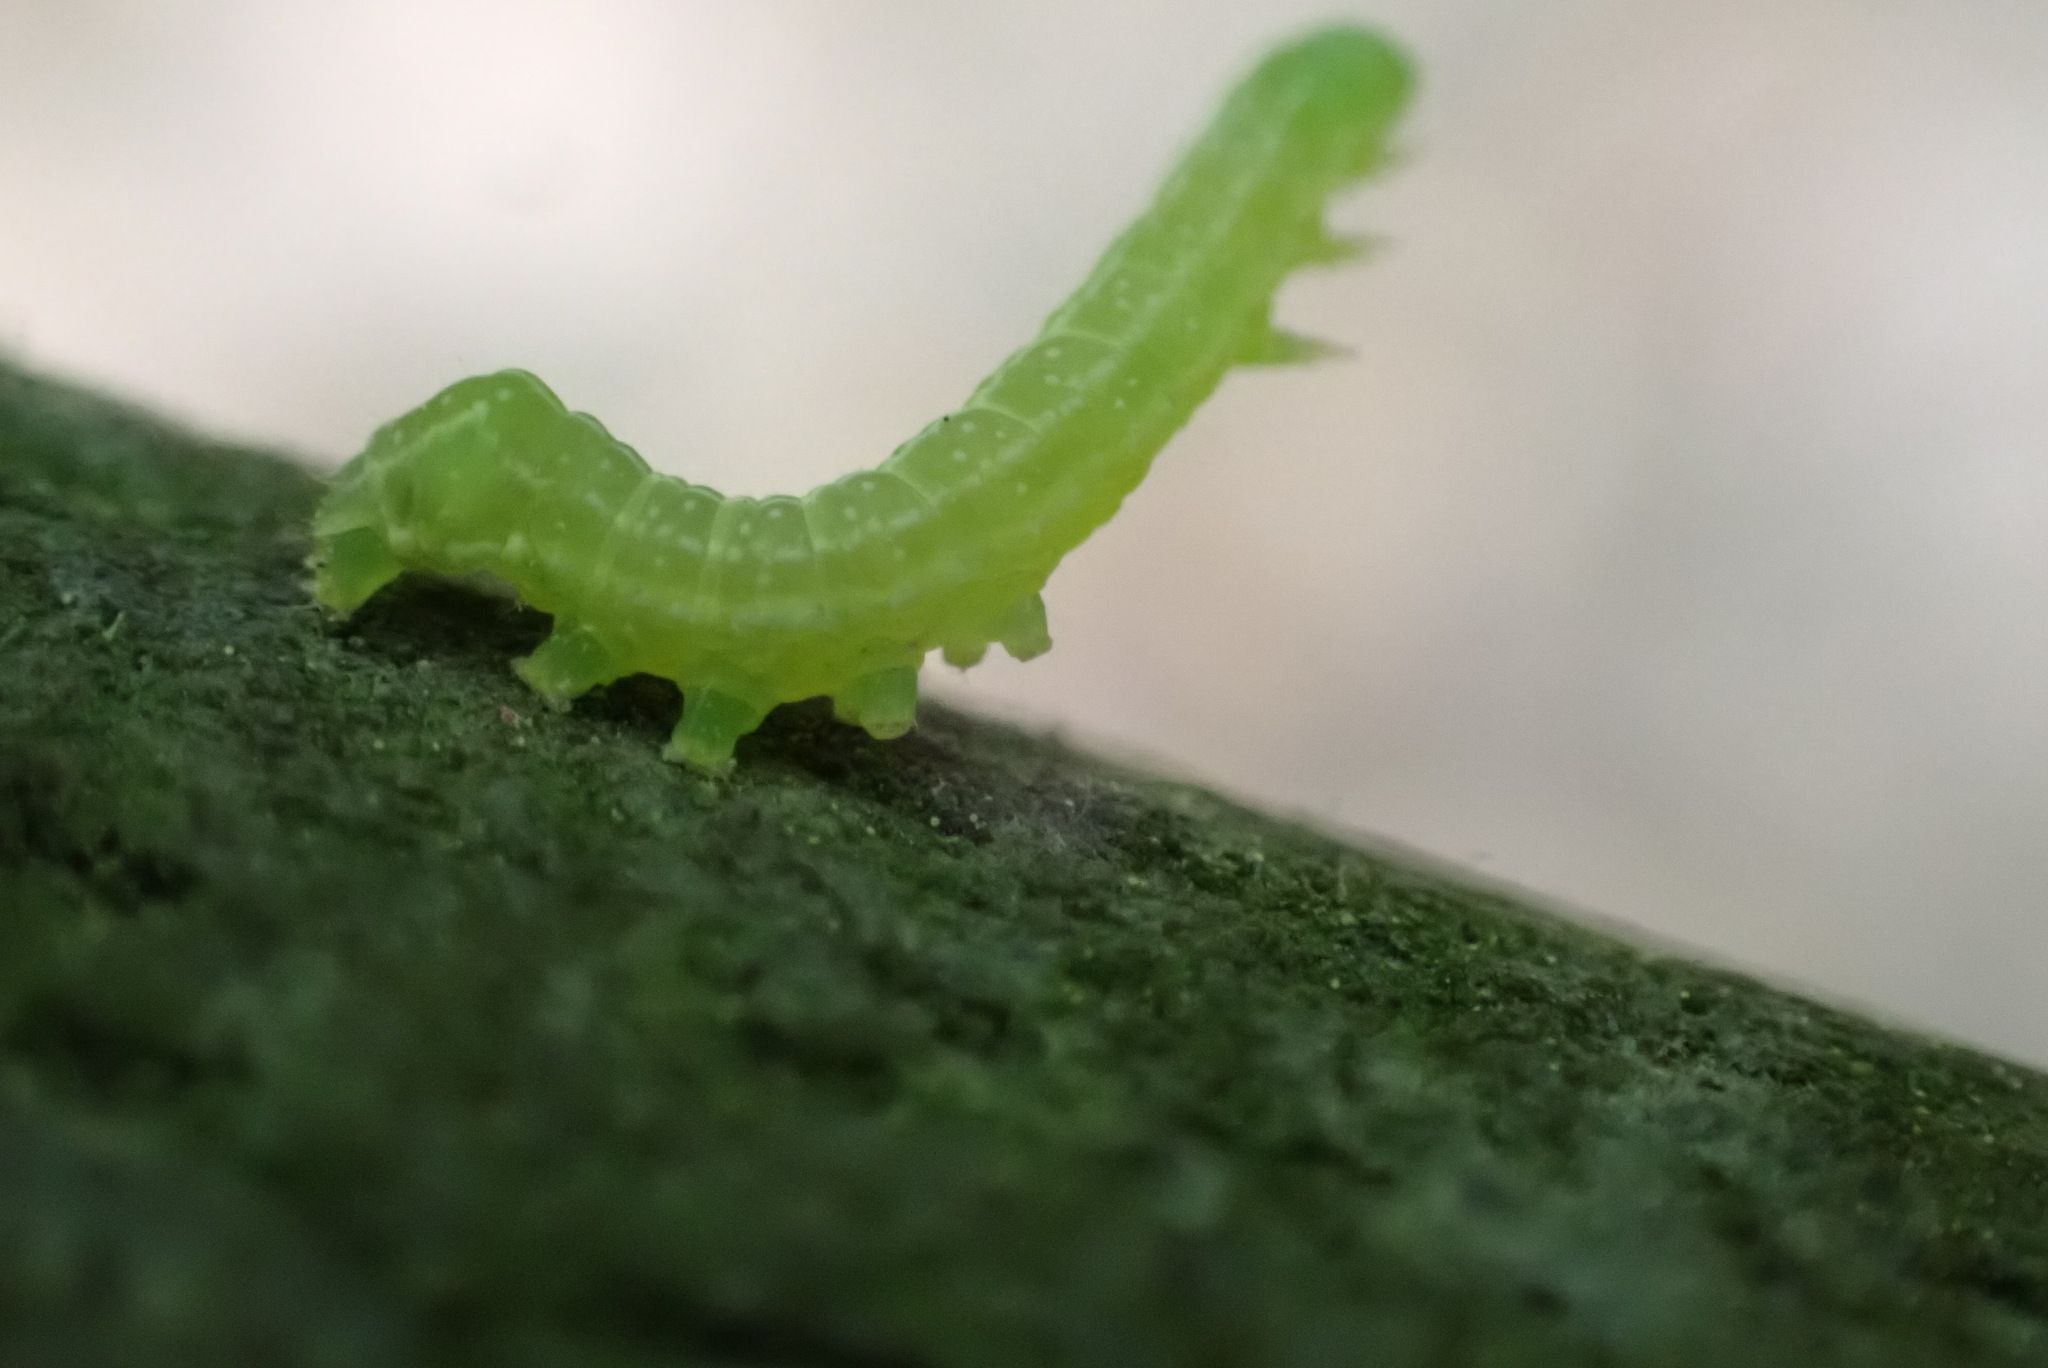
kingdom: Animalia
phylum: Arthropoda
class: Insecta
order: Lepidoptera
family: Noctuidae
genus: Amphipyra
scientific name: Amphipyra pyramidoides
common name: American copper underwing
